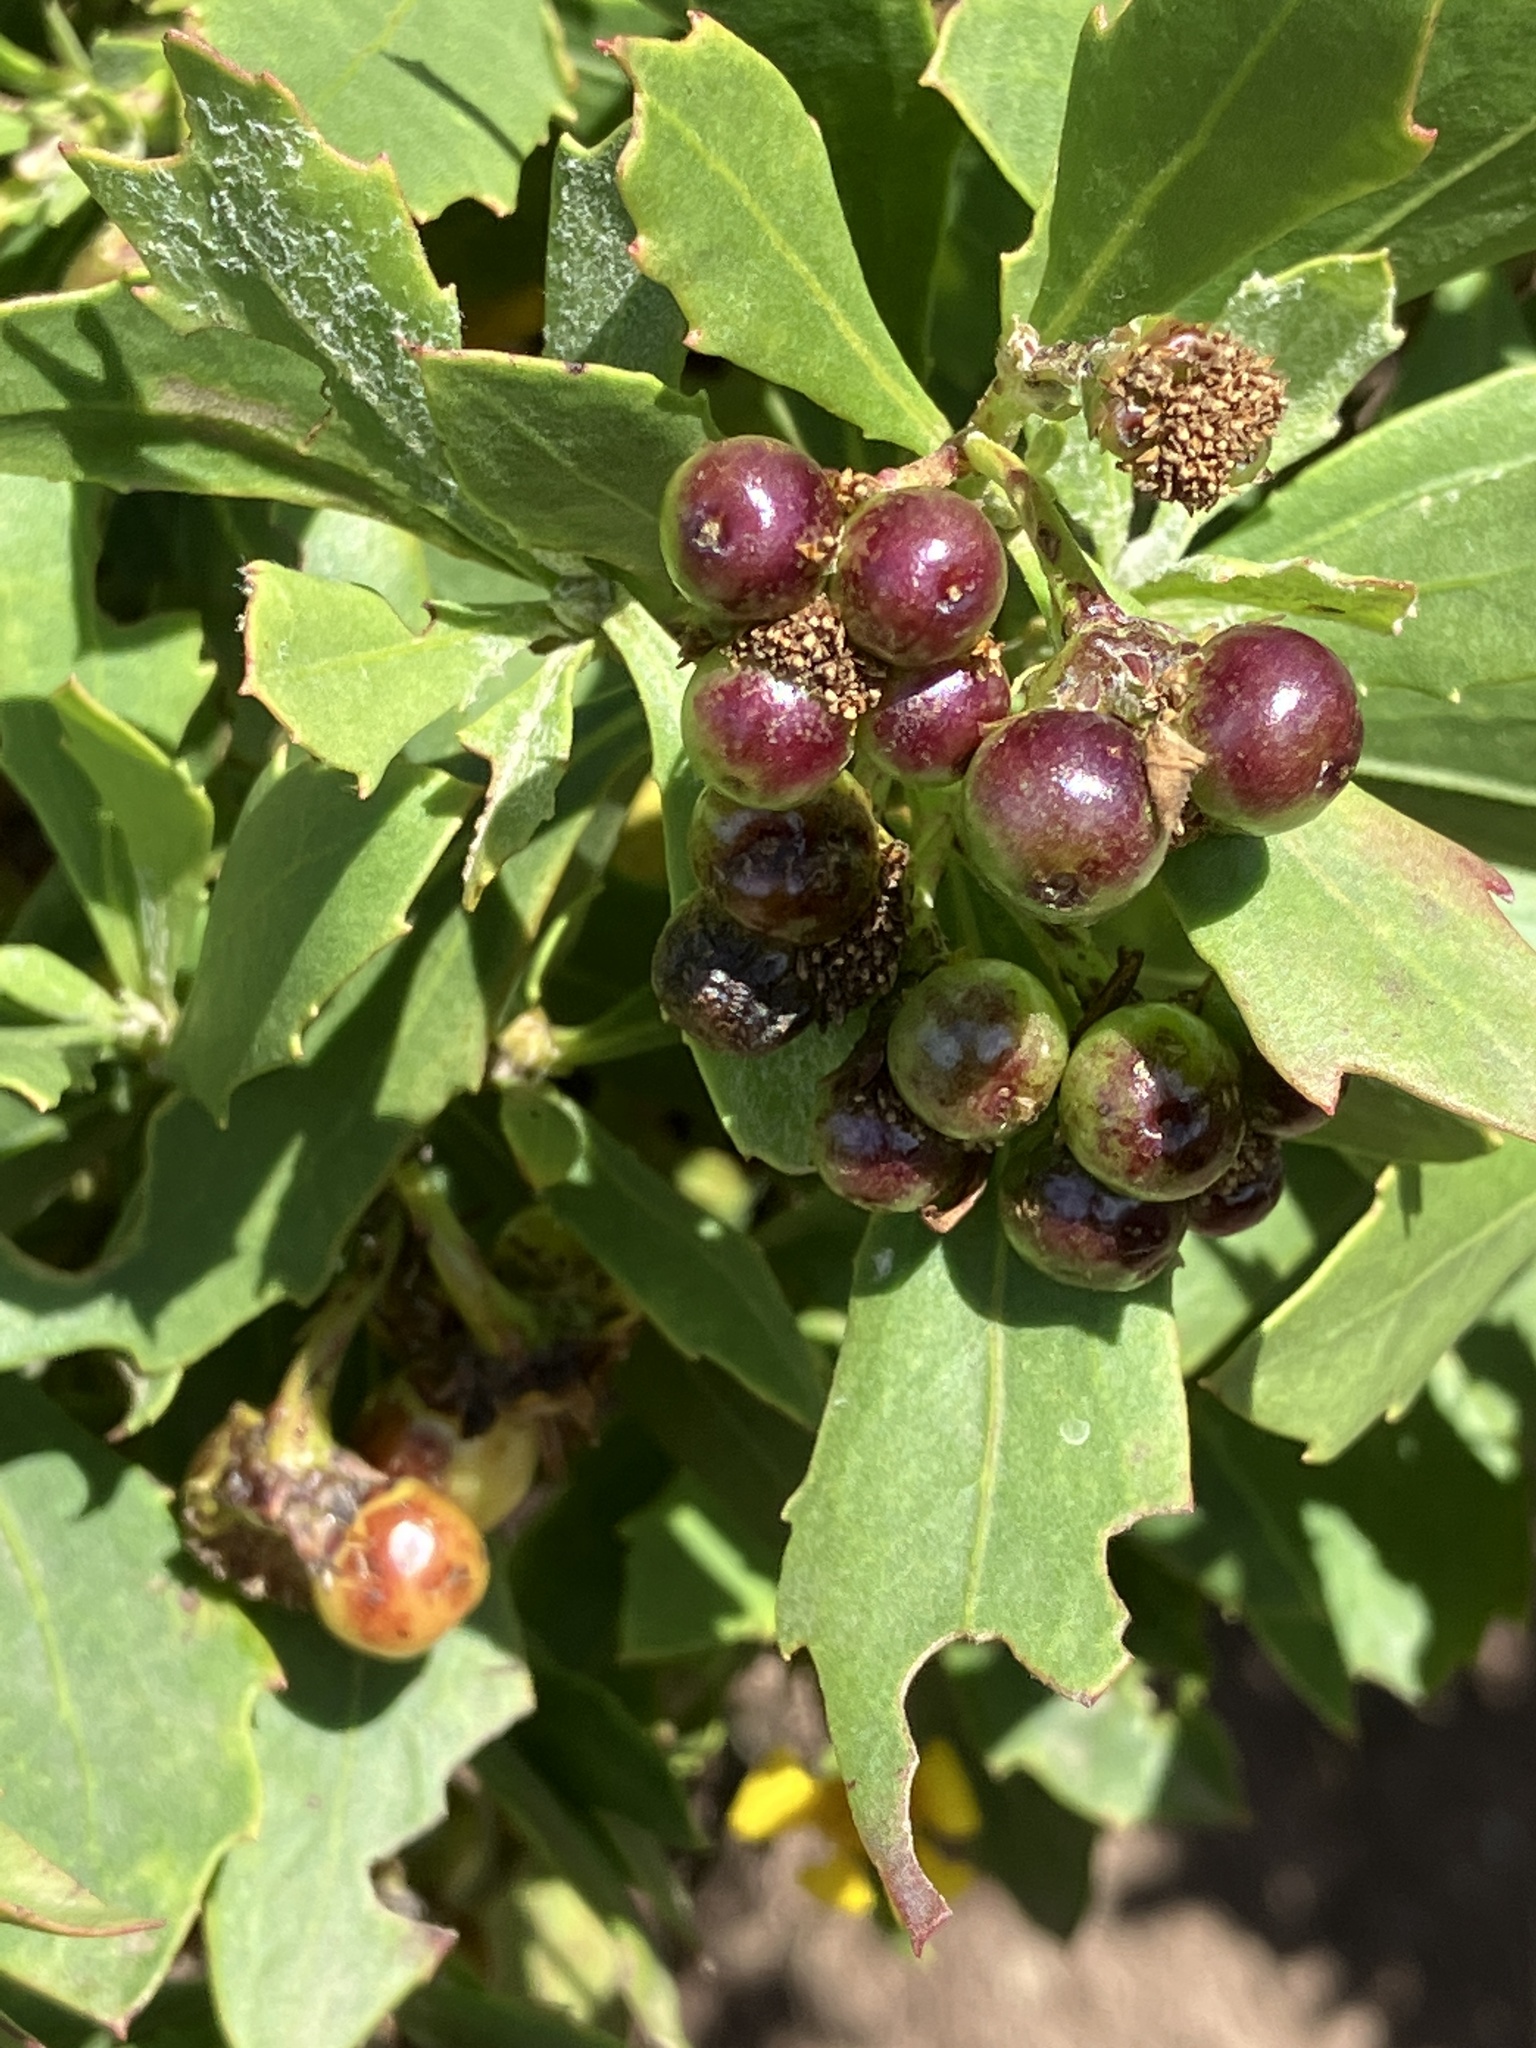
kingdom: Plantae
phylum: Tracheophyta
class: Magnoliopsida
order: Asterales
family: Asteraceae
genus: Osteospermum
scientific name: Osteospermum moniliferum
